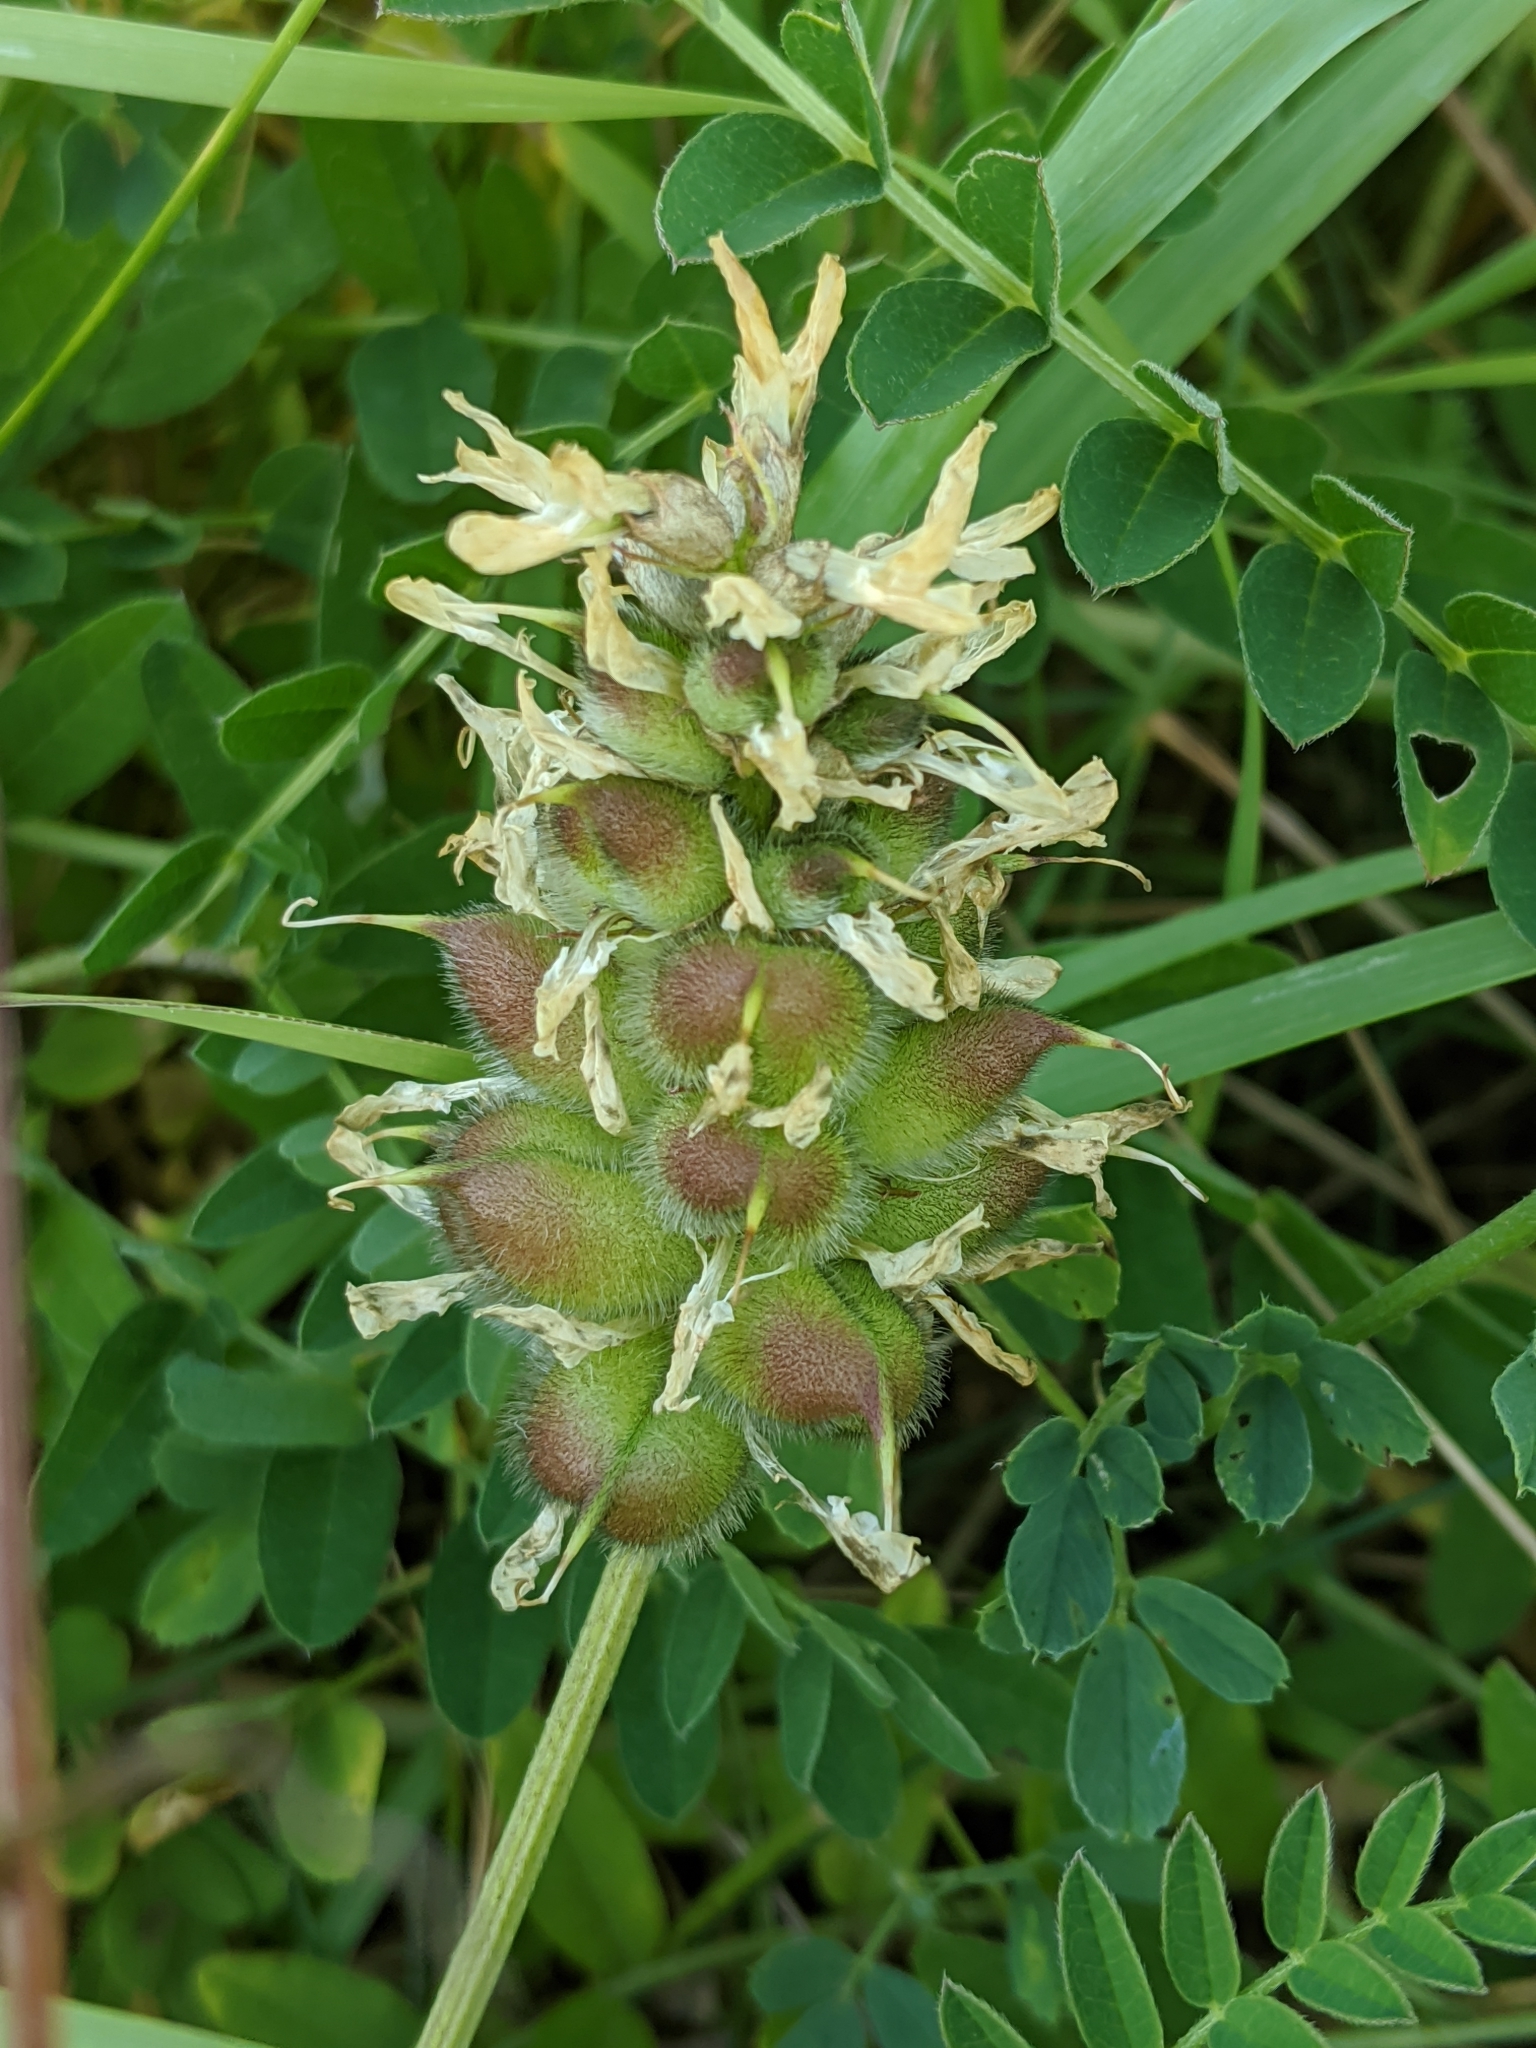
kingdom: Plantae
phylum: Tracheophyta
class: Magnoliopsida
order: Fabales
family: Fabaceae
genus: Astragalus
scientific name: Astragalus cicer
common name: Chick-pea milk-vetch
